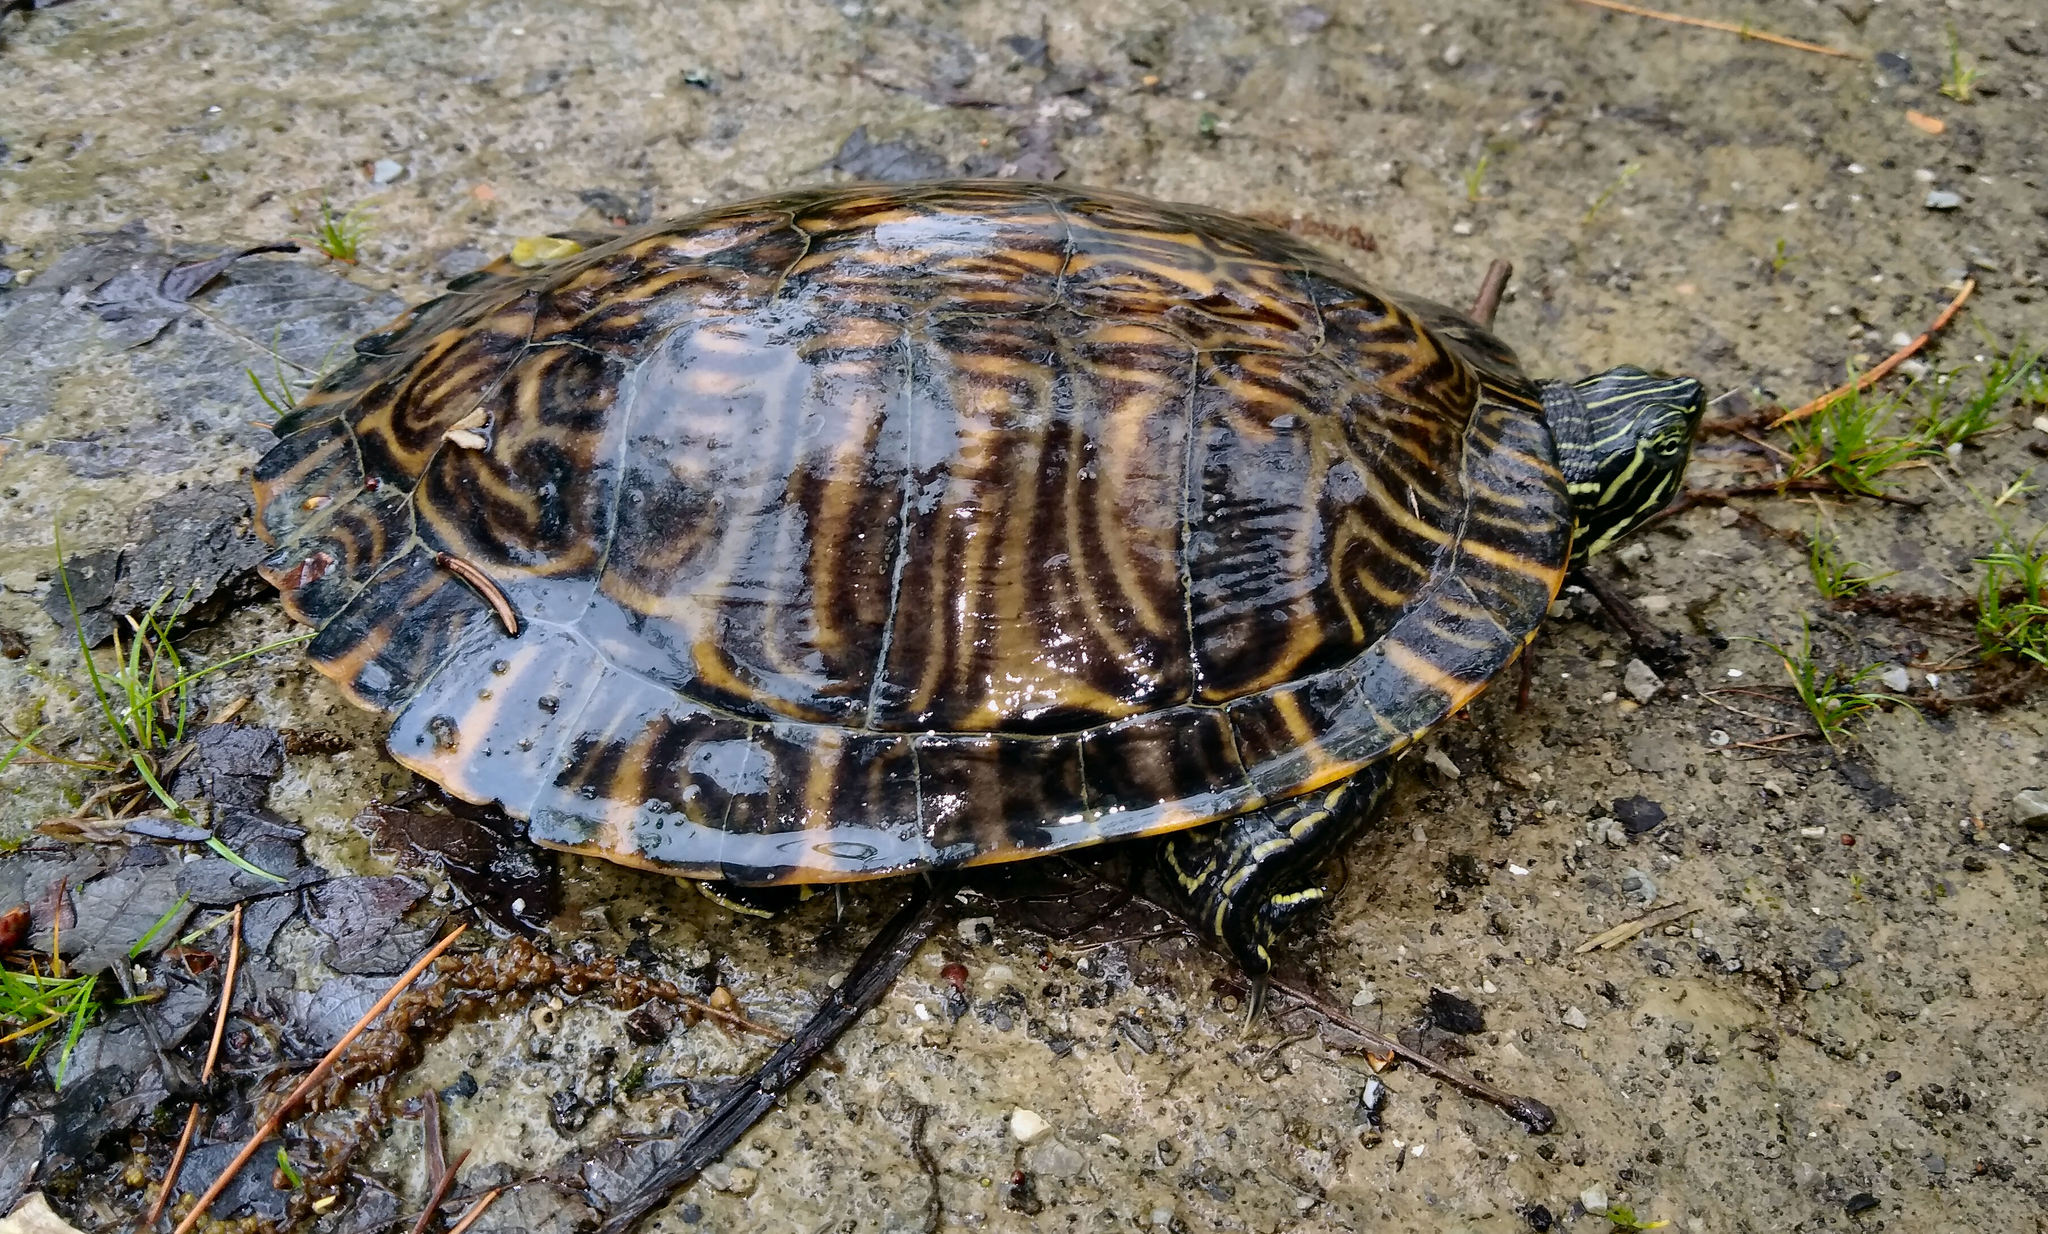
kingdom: Animalia
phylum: Chordata
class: Testudines
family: Emydidae
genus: Pseudemys
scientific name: Pseudemys concinna
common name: Eastern river cooter
